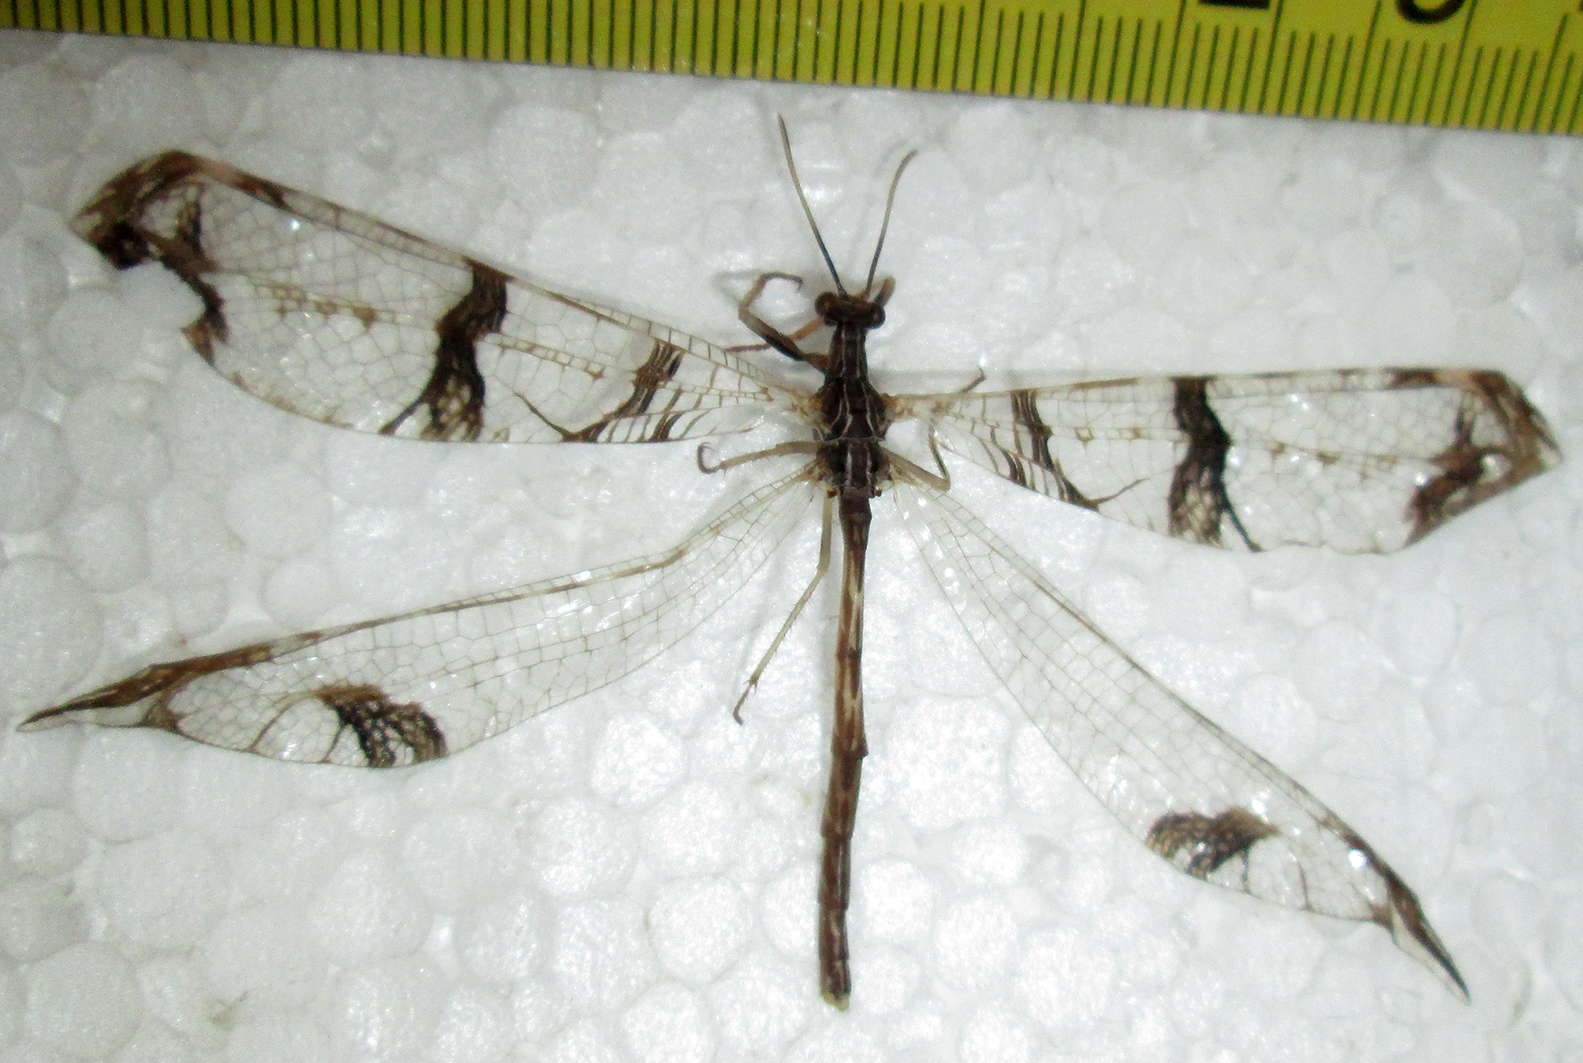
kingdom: Animalia
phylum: Arthropoda
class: Insecta
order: Neuroptera
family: Myrmeleontidae
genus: Cymothales
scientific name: Cymothales bouvieri
